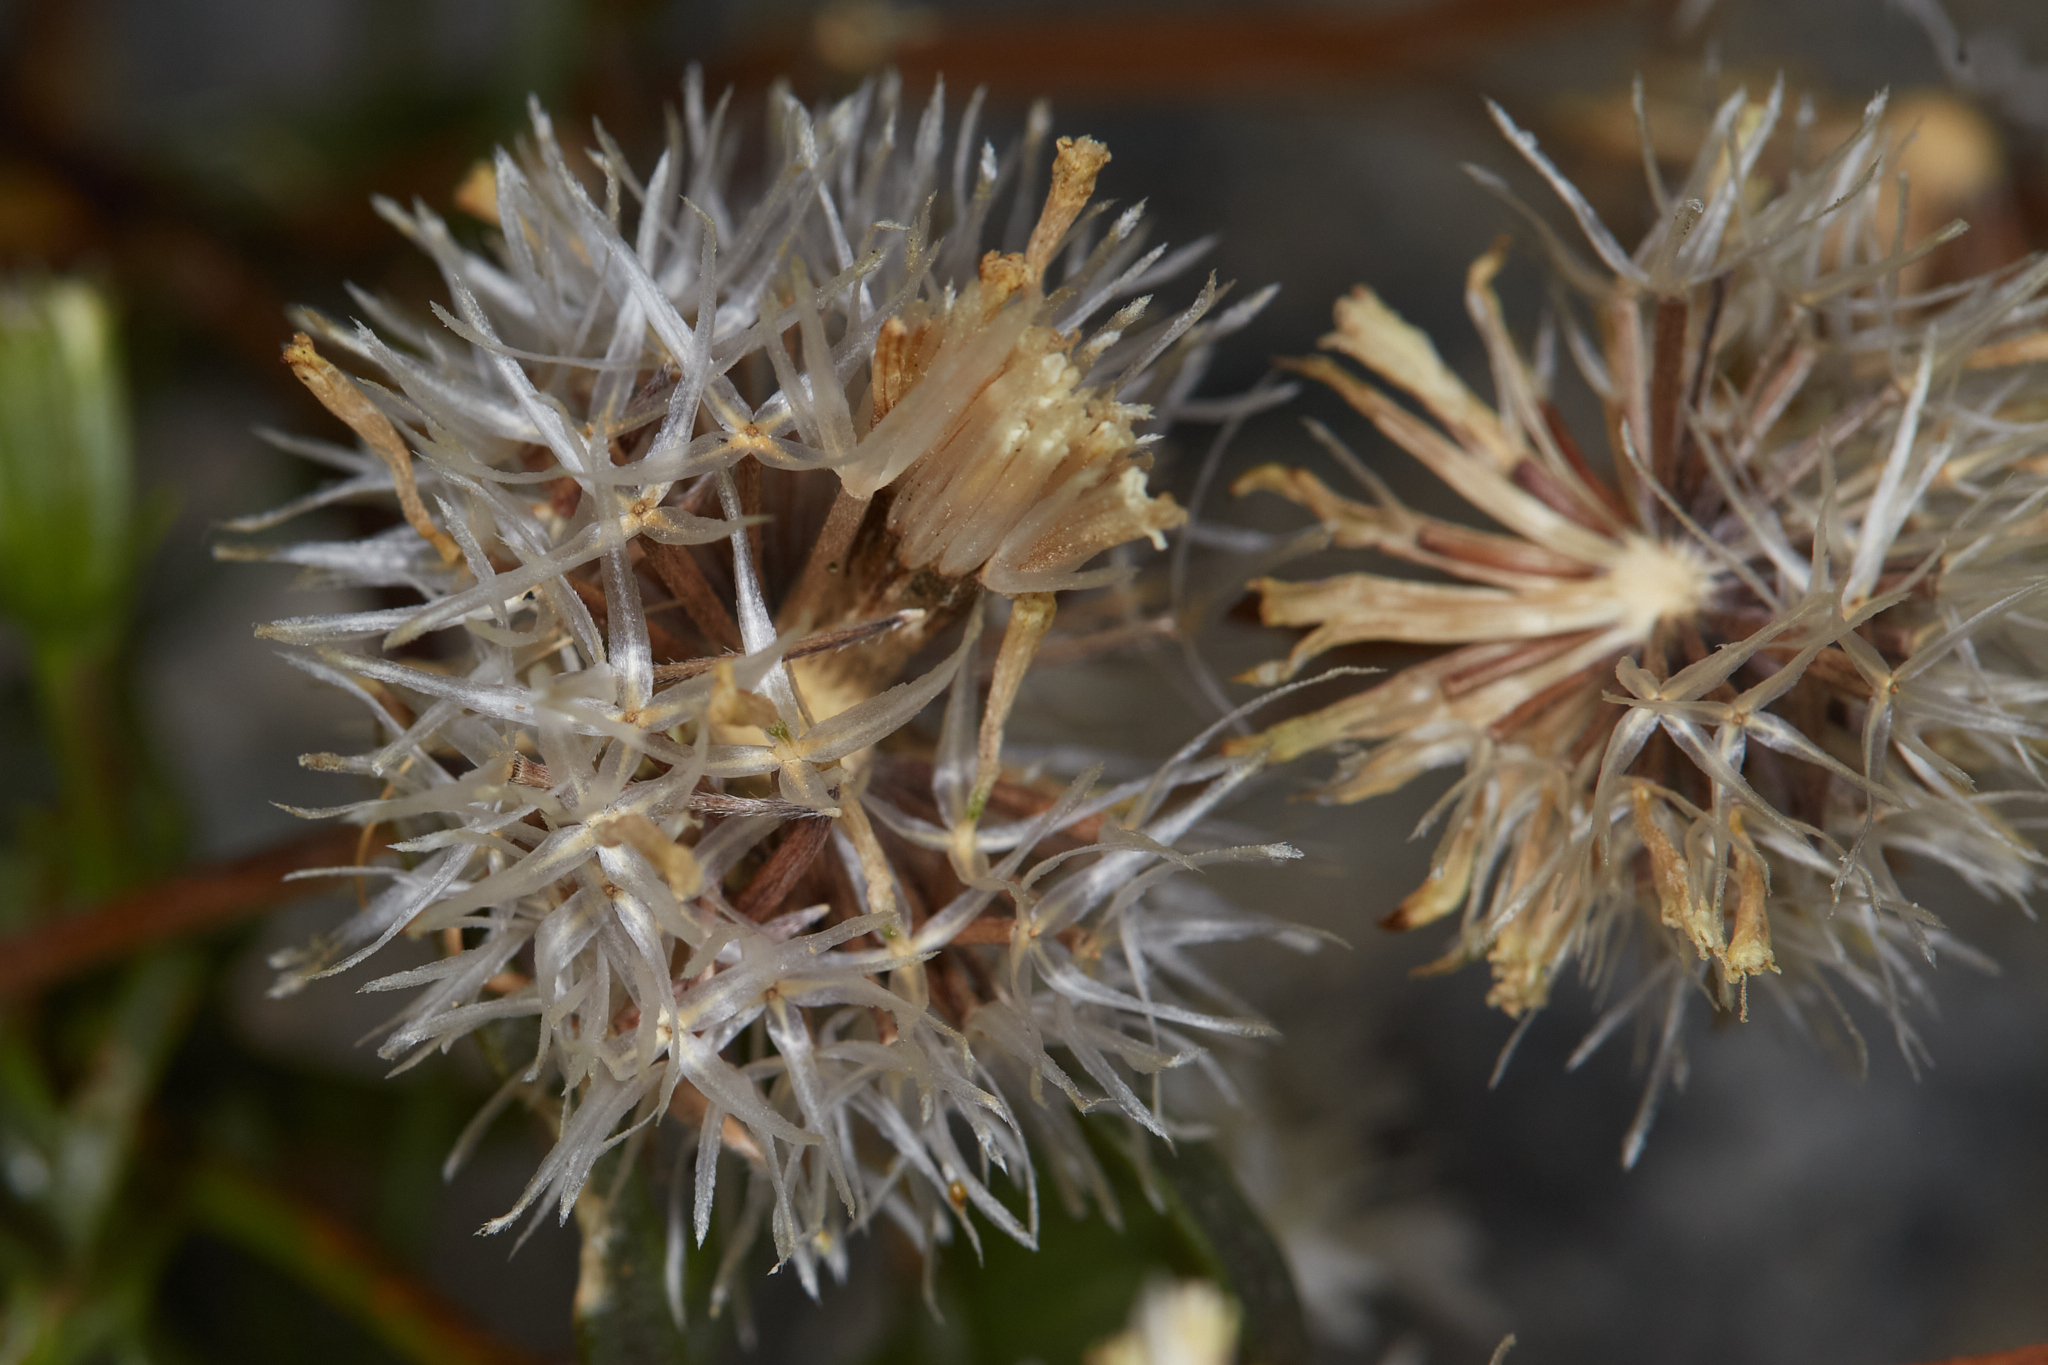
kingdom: Plantae
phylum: Tracheophyta
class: Magnoliopsida
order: Asterales
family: Asteraceae
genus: Chaenactis
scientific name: Chaenactis fremontii
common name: Fremont pincushion
